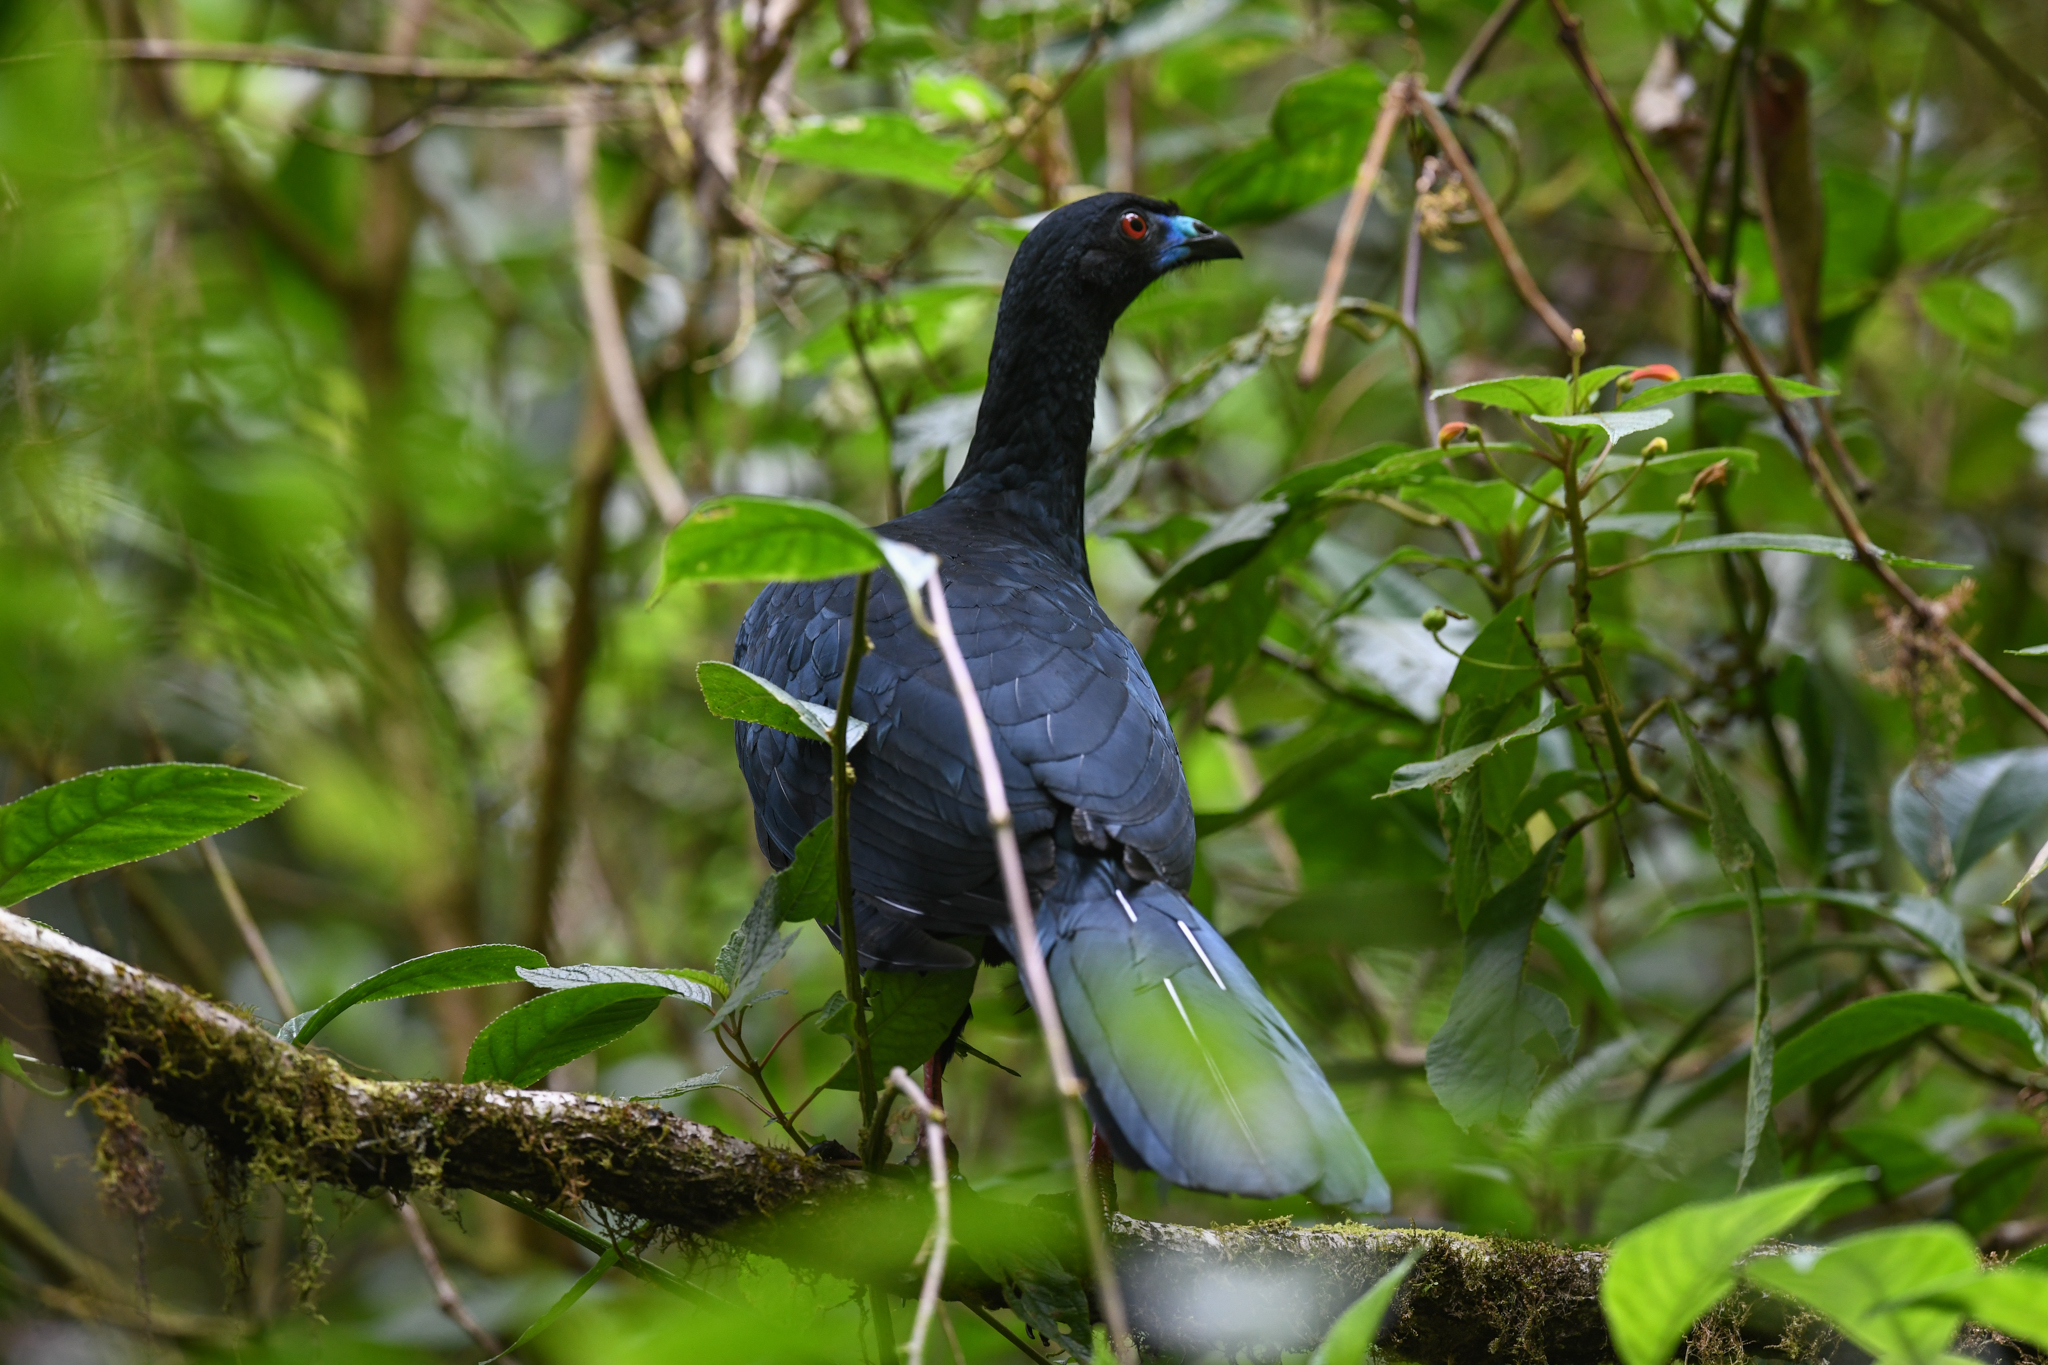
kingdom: Animalia
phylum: Chordata
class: Aves
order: Galliformes
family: Cracidae
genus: Chamaepetes
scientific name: Chamaepetes unicolor
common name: Black guan
